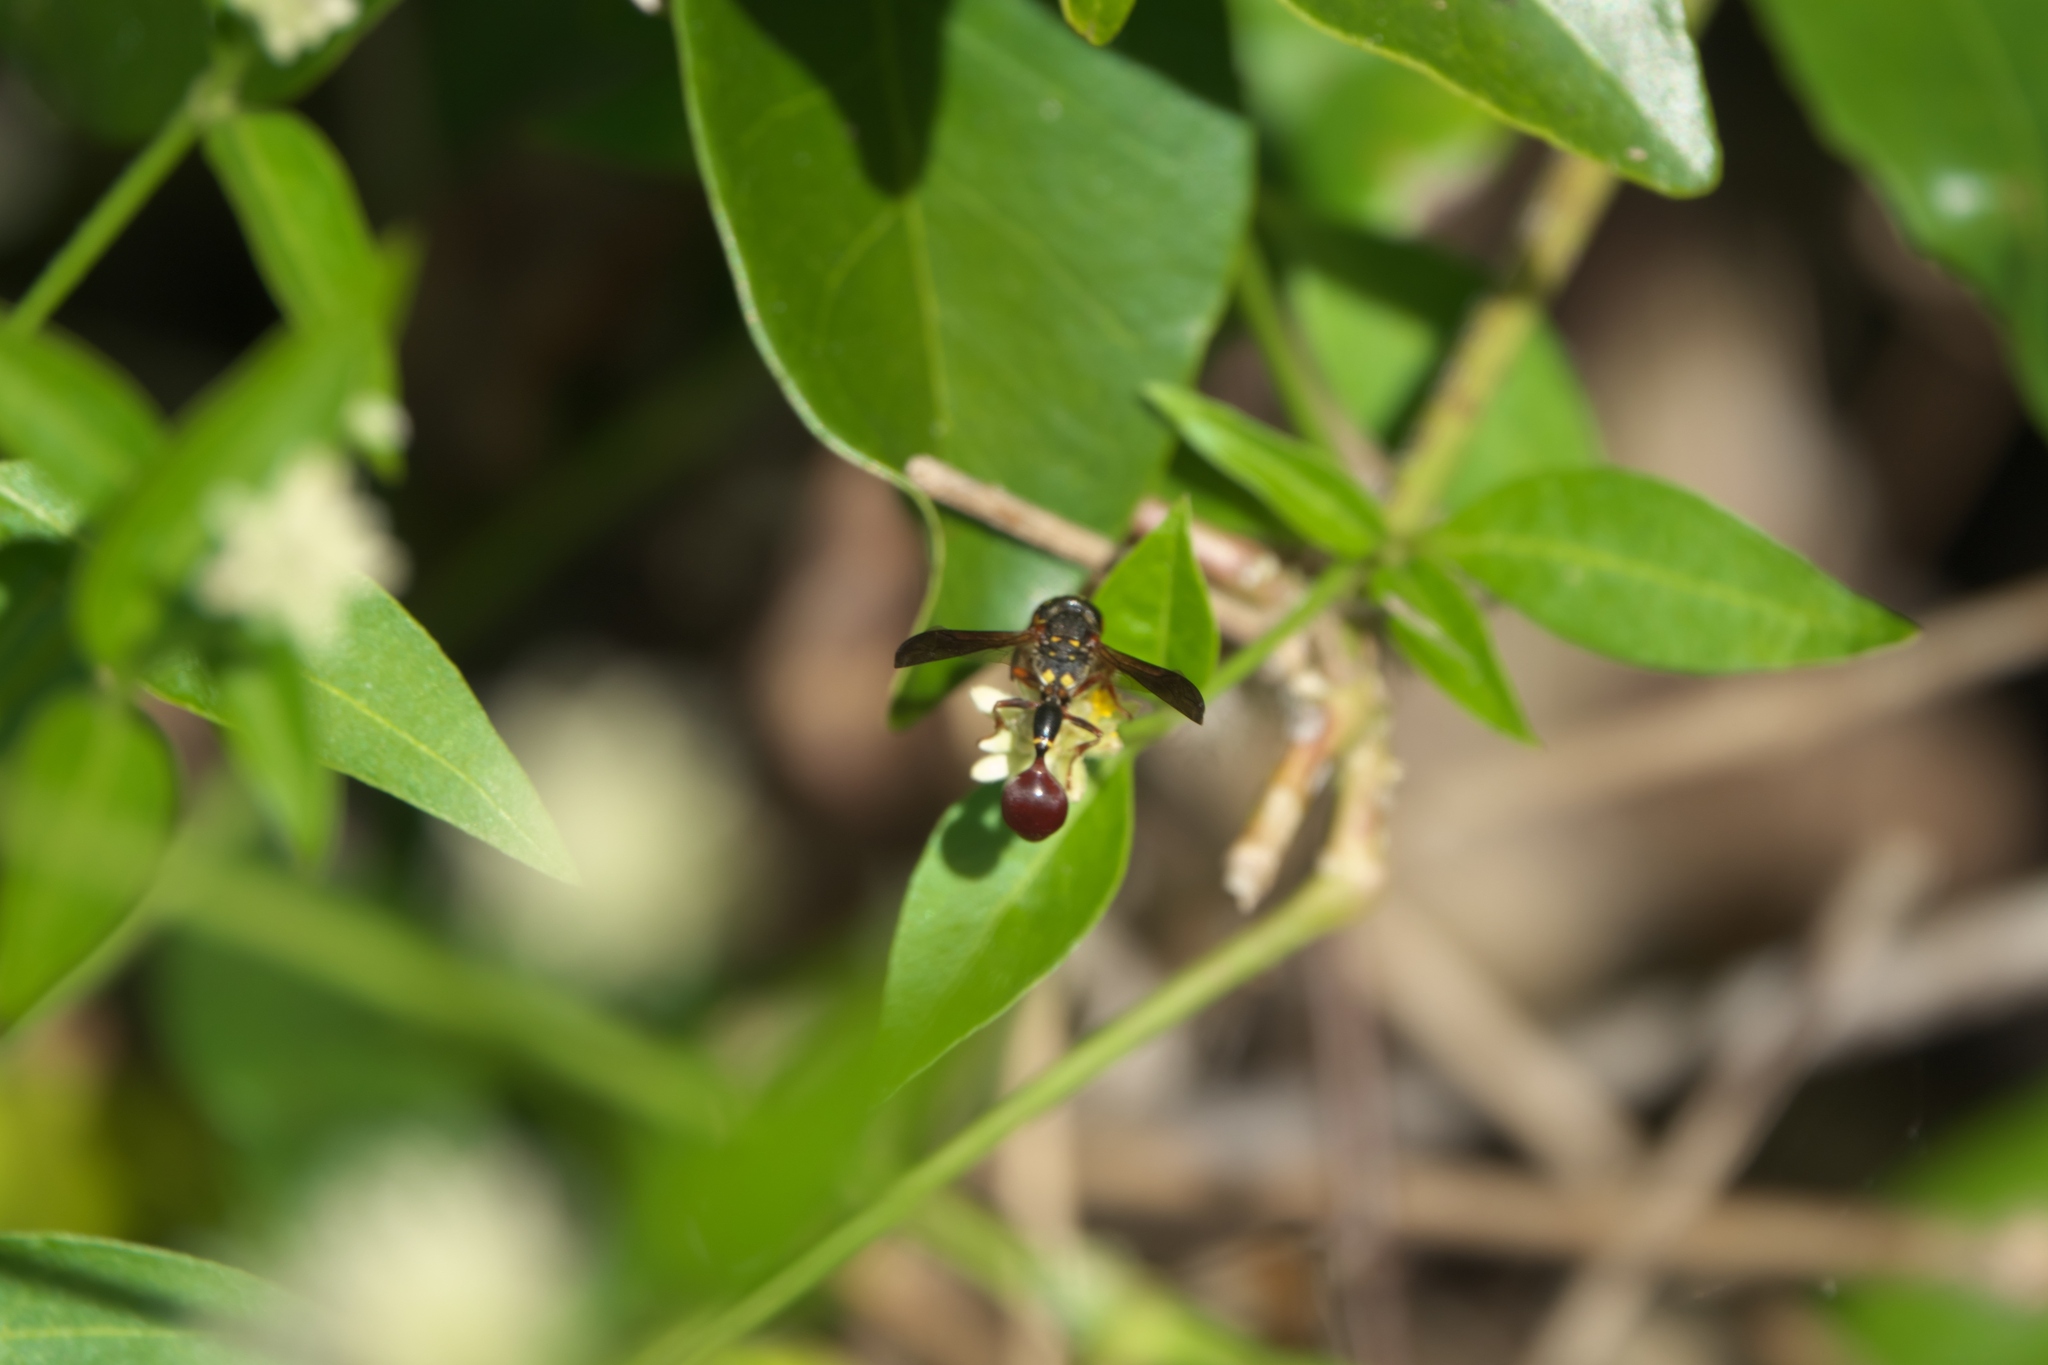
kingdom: Animalia
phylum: Arthropoda
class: Insecta
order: Hymenoptera
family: Eumenidae
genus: Zethus
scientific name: Zethus slossonae
